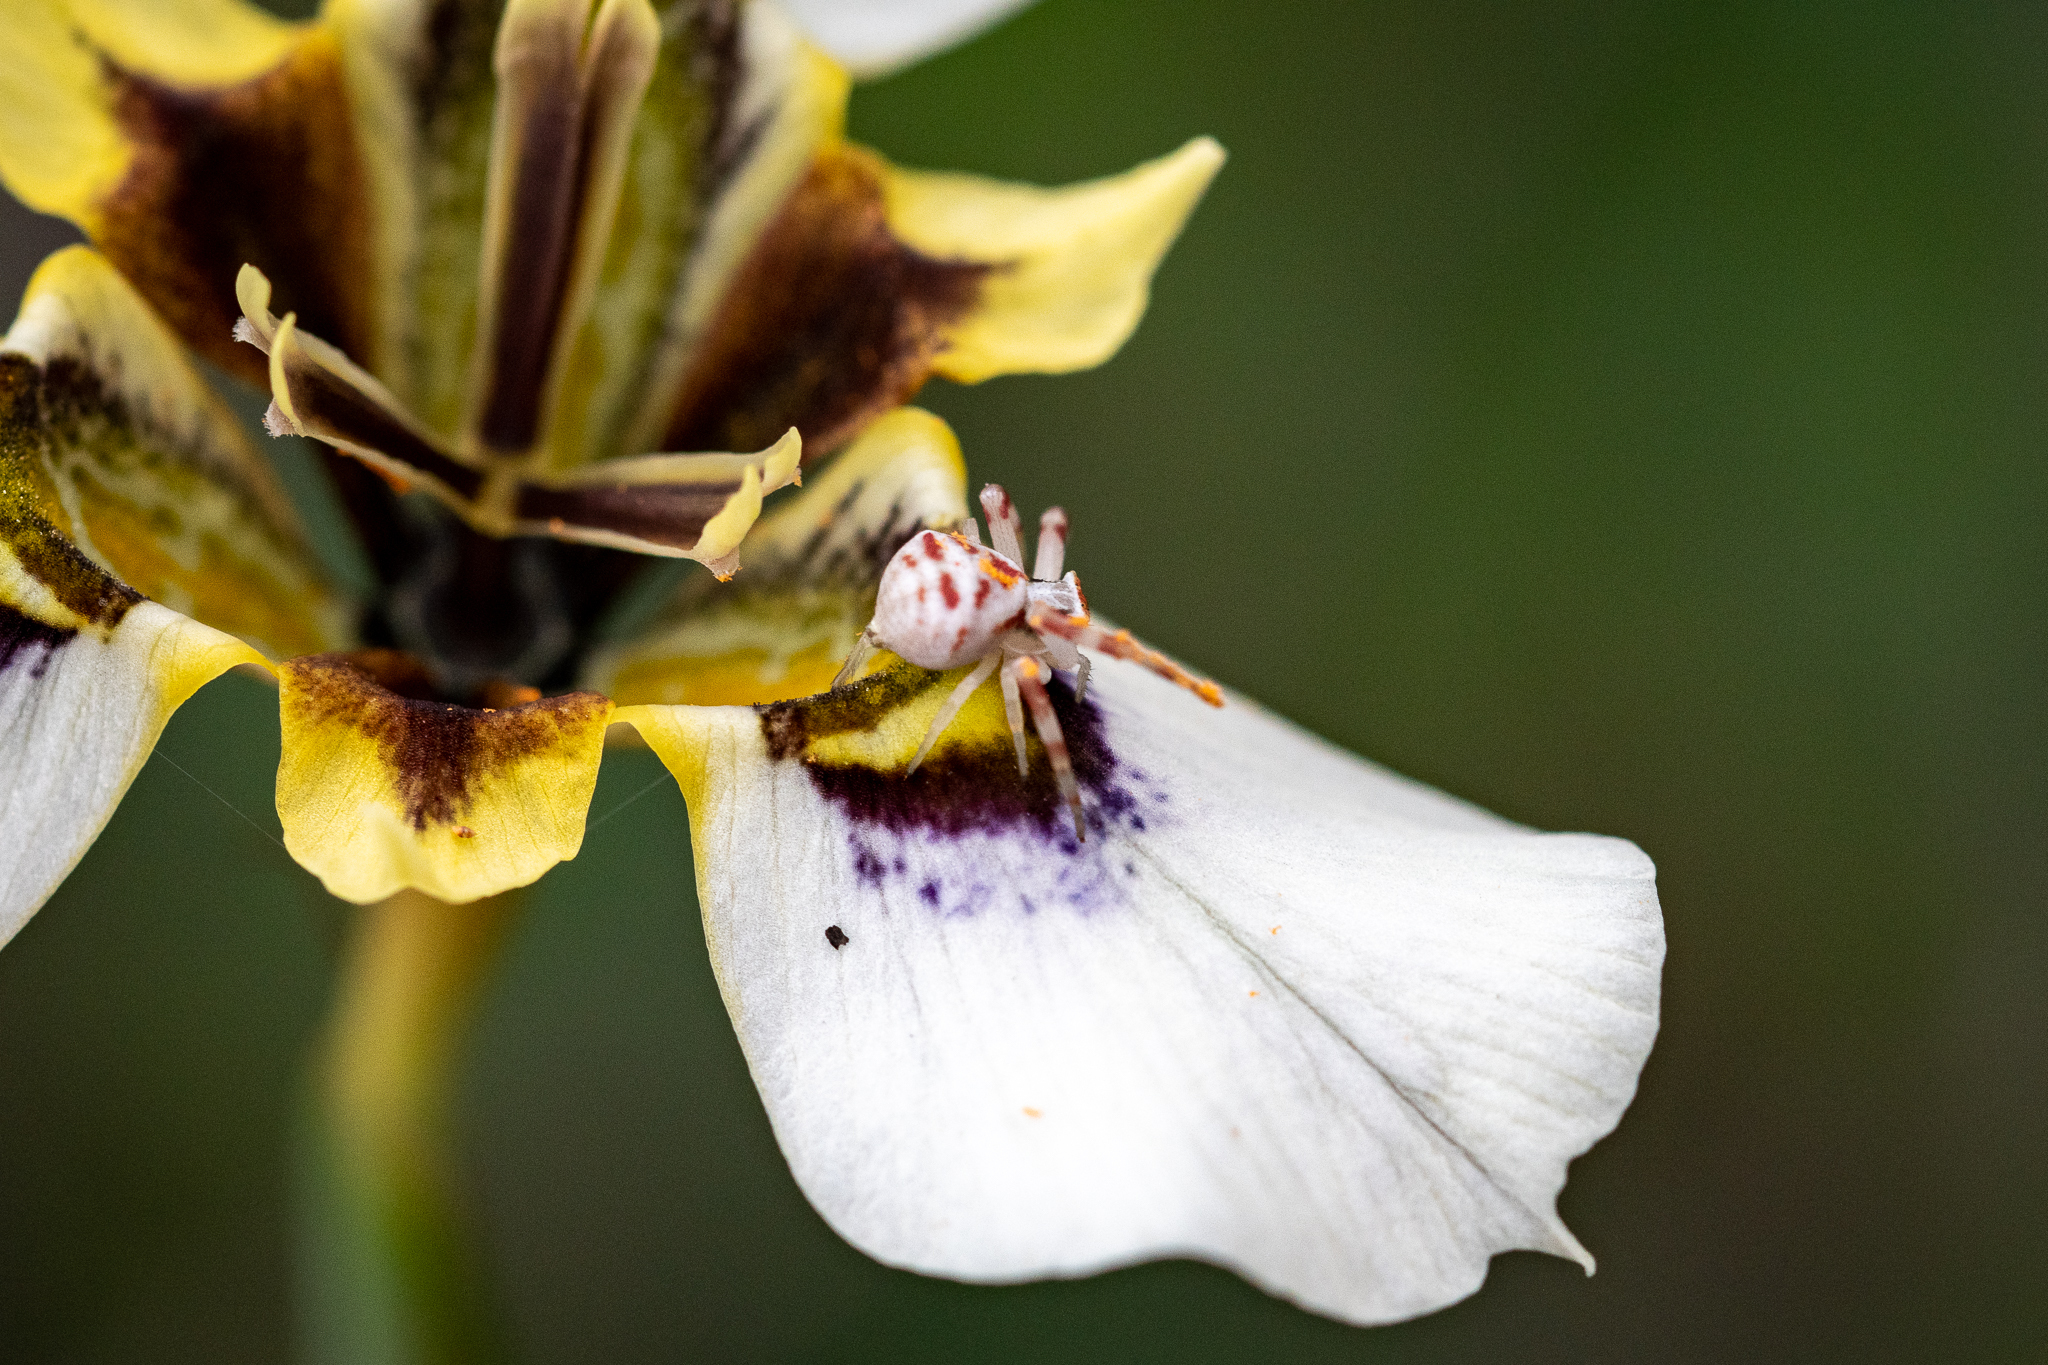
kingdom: Animalia
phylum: Arthropoda
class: Arachnida
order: Araneae
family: Thomisidae
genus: Thomisus
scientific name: Thomisus citrinellus
